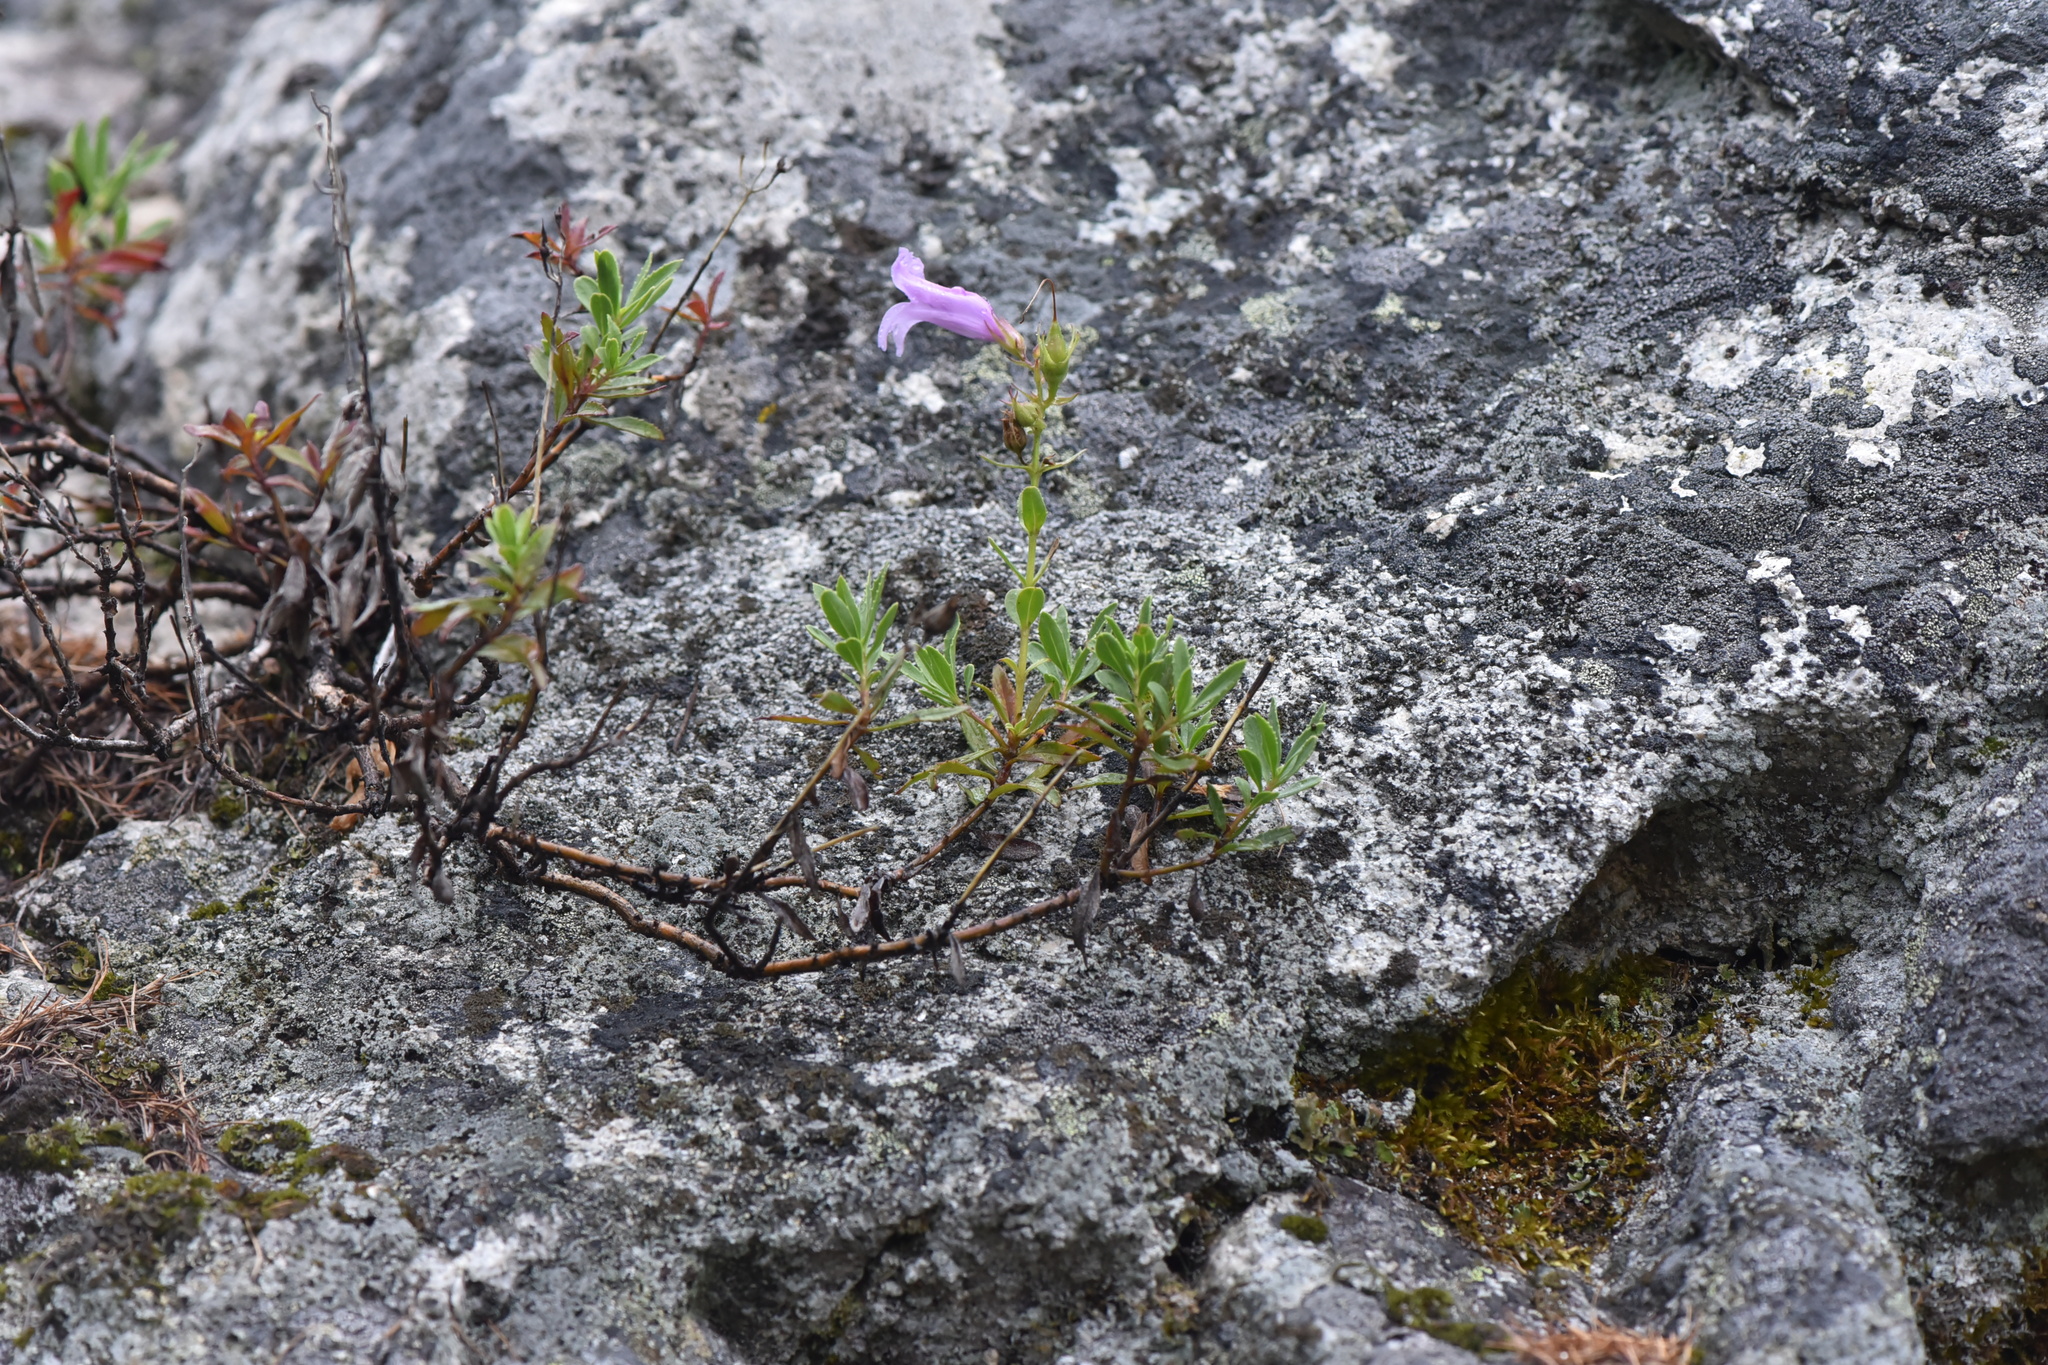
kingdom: Plantae
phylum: Tracheophyta
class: Magnoliopsida
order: Lamiales
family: Plantaginaceae
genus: Penstemon
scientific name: Penstemon fruticosus
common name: Bush penstemon
